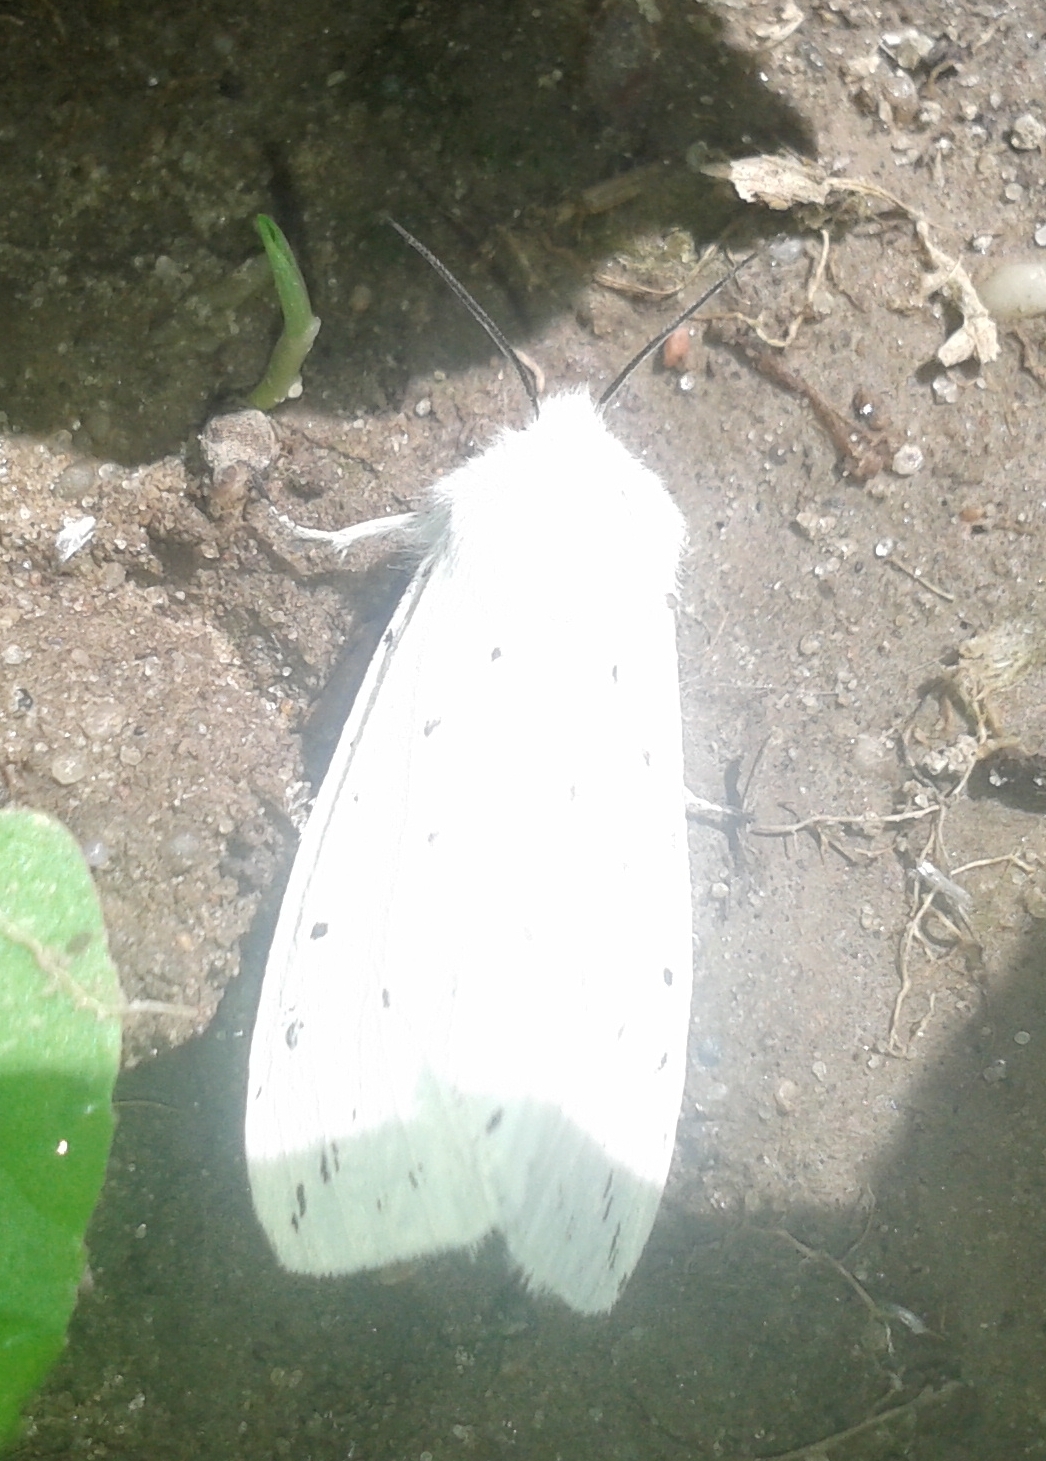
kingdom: Animalia
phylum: Arthropoda
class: Insecta
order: Lepidoptera
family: Erebidae
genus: Spilosoma
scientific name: Spilosoma lubricipeda
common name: White ermine
